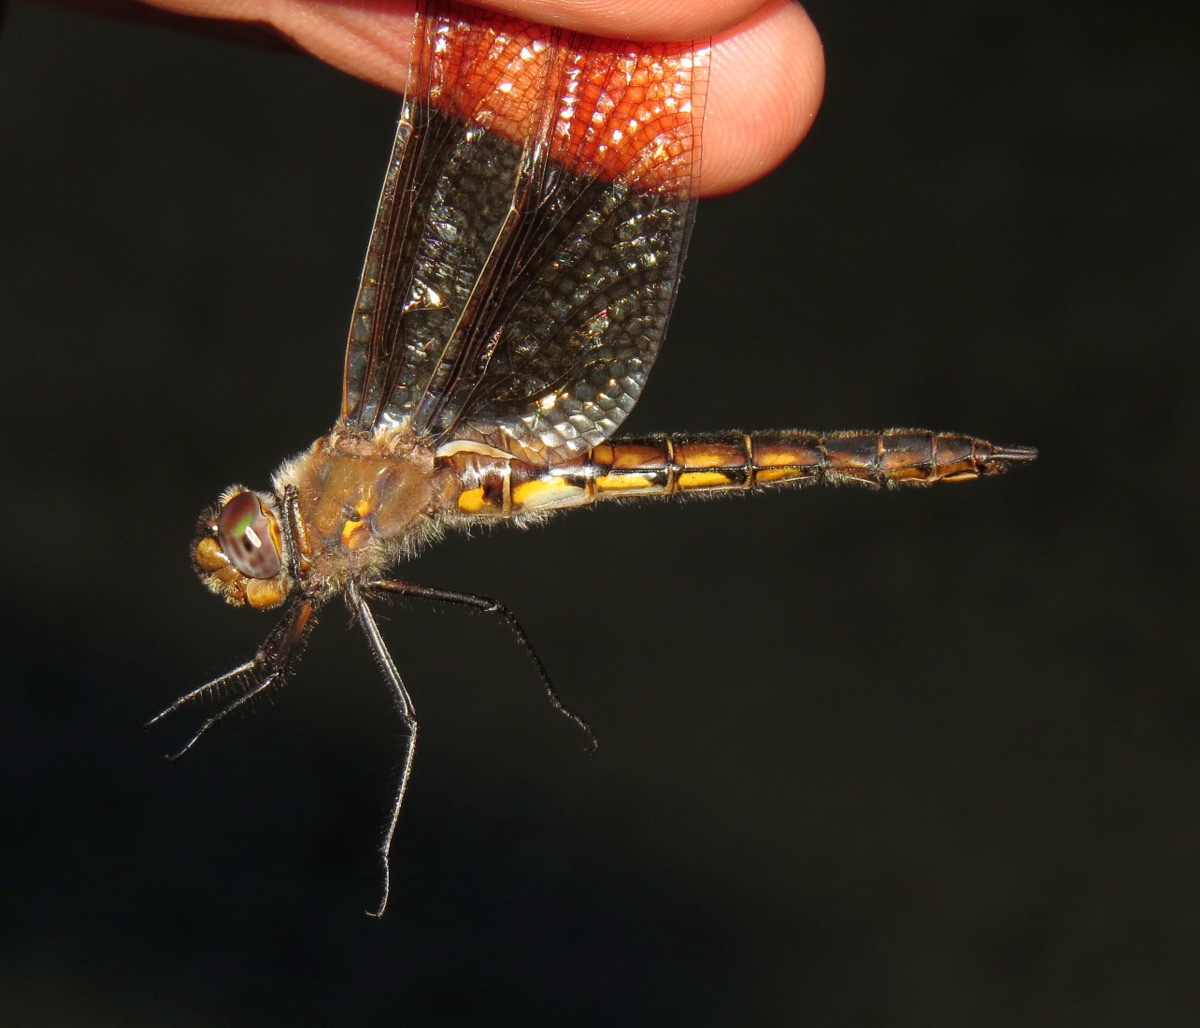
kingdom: Animalia
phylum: Arthropoda
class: Insecta
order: Odonata
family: Corduliidae
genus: Epitheca
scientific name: Epitheca canis
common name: Beaverpond baskettail
